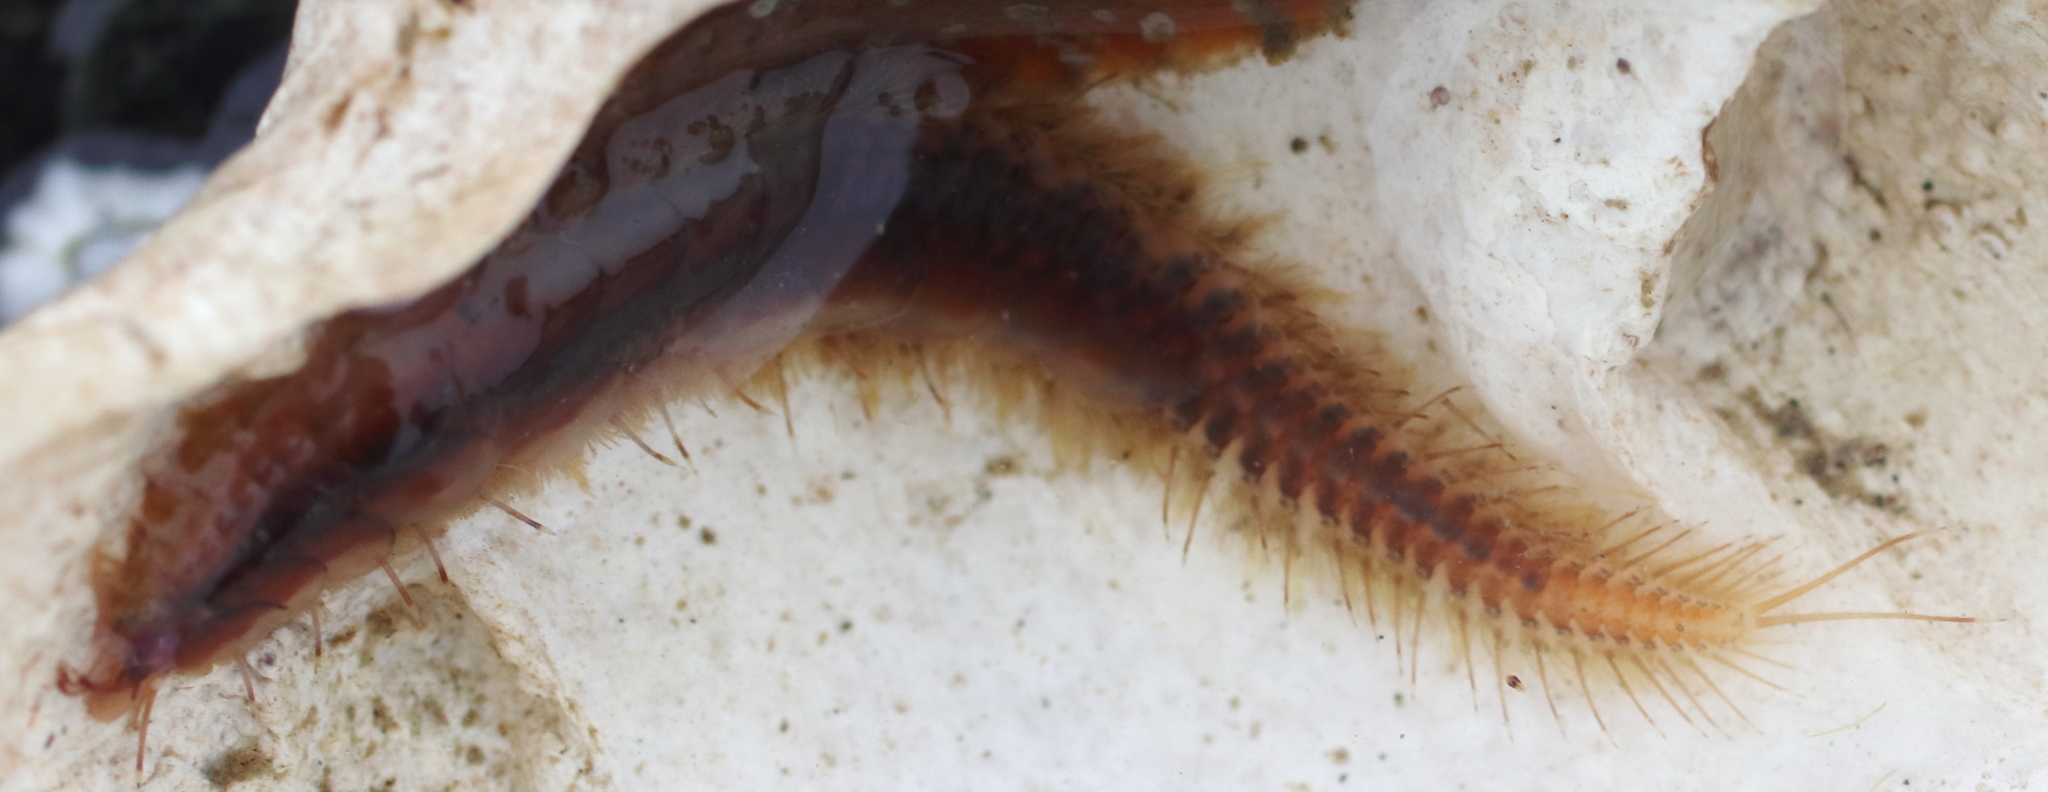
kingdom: Animalia
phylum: Annelida
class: Polychaeta
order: Phyllodocida
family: Polynoidae
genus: Hermadionella
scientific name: Hermadionella truncata
